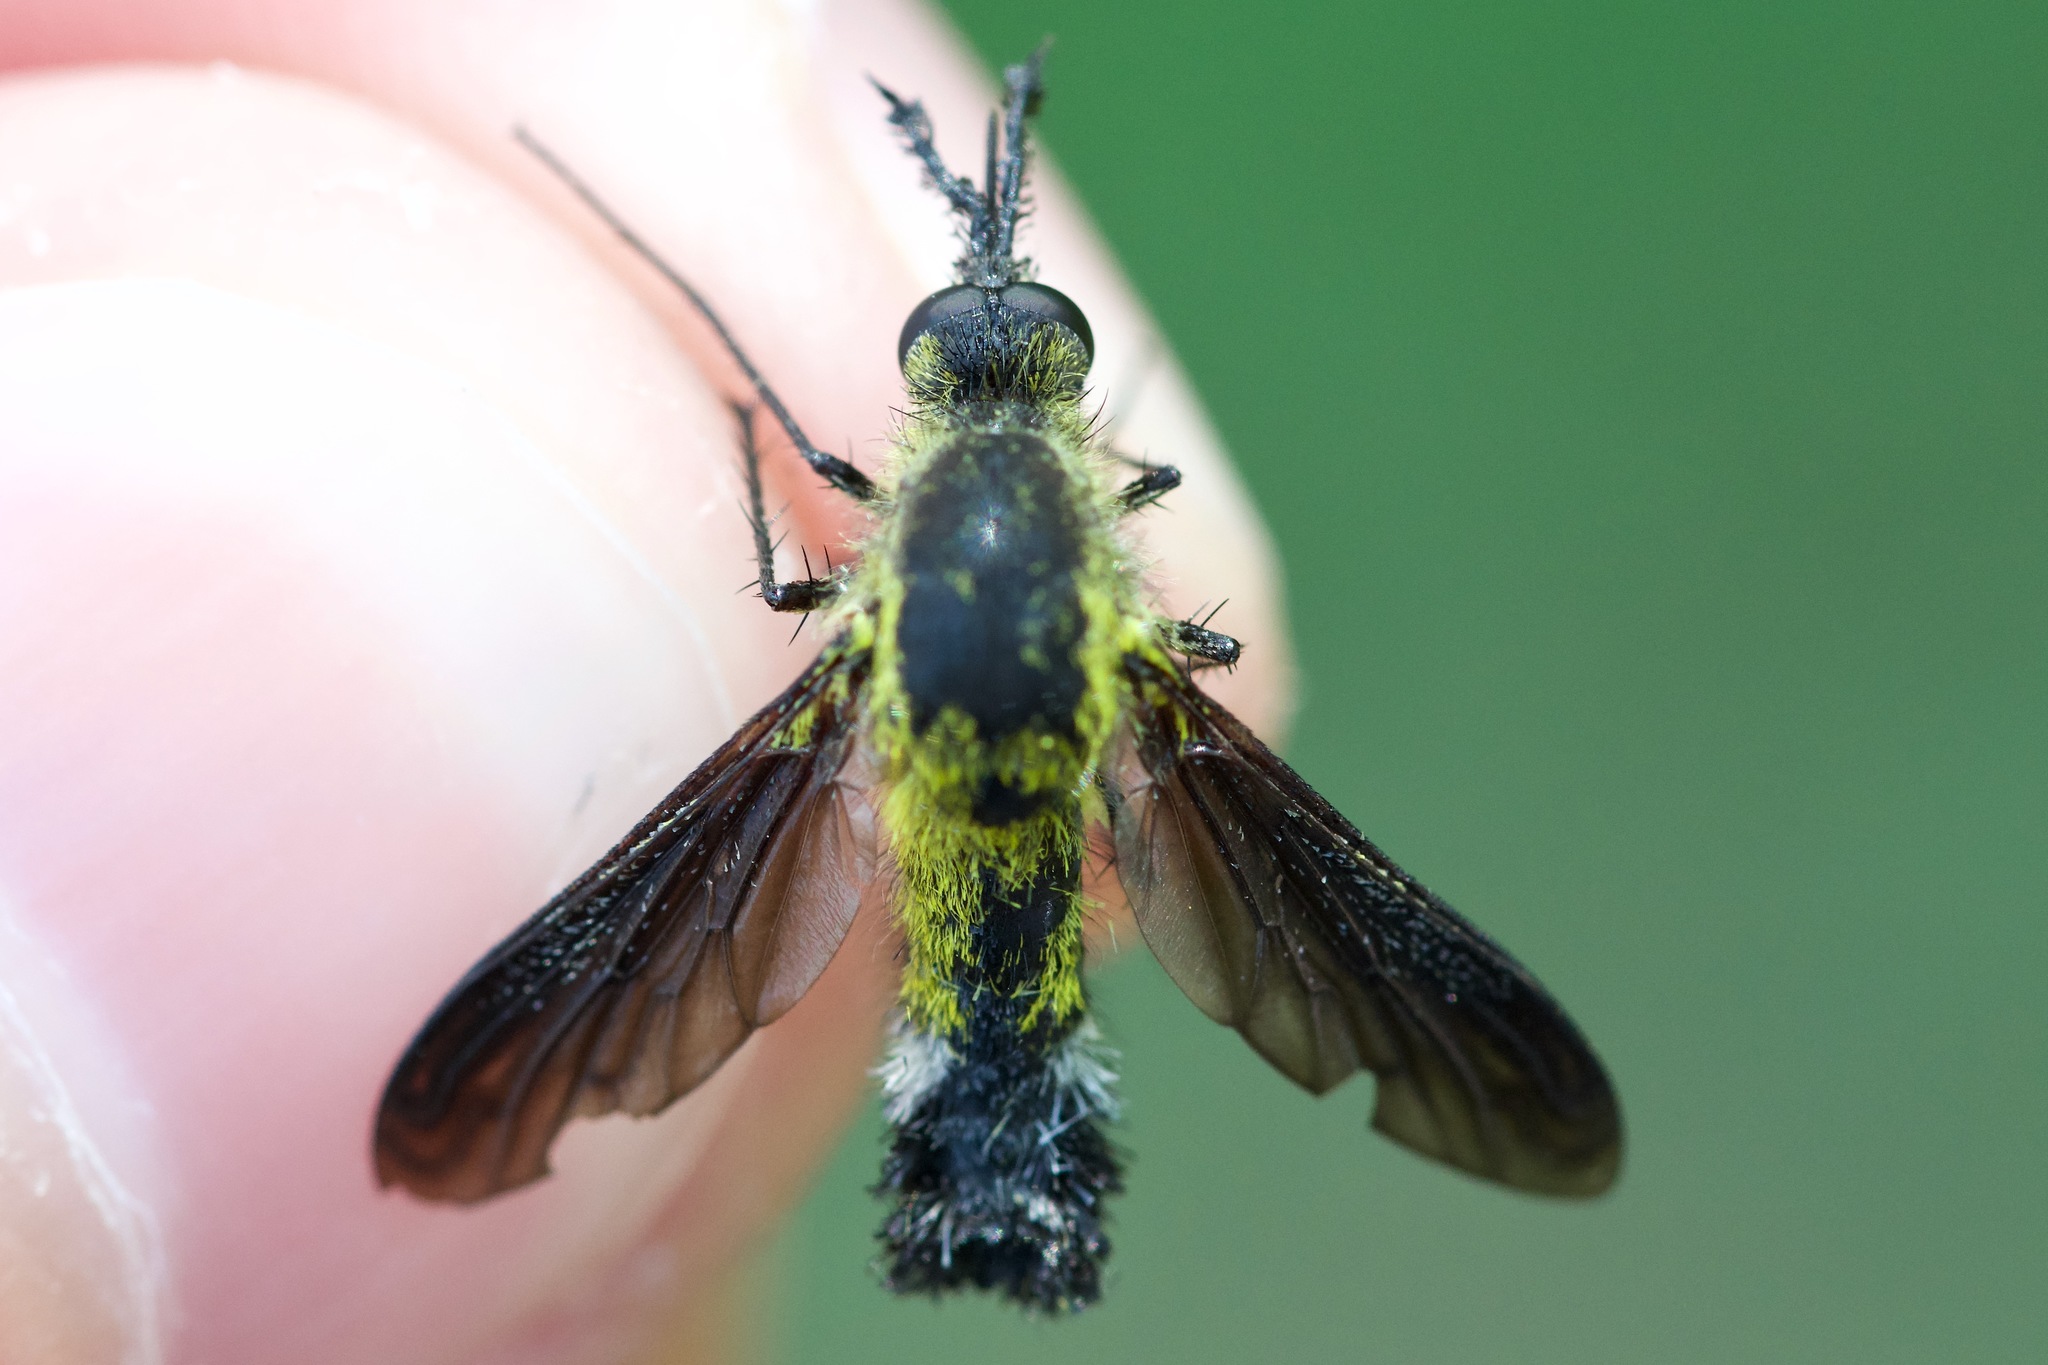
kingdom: Animalia
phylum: Arthropoda
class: Insecta
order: Diptera
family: Bombyliidae
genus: Lepidophora
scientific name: Lepidophora lutea
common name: Hunchback bee fly
